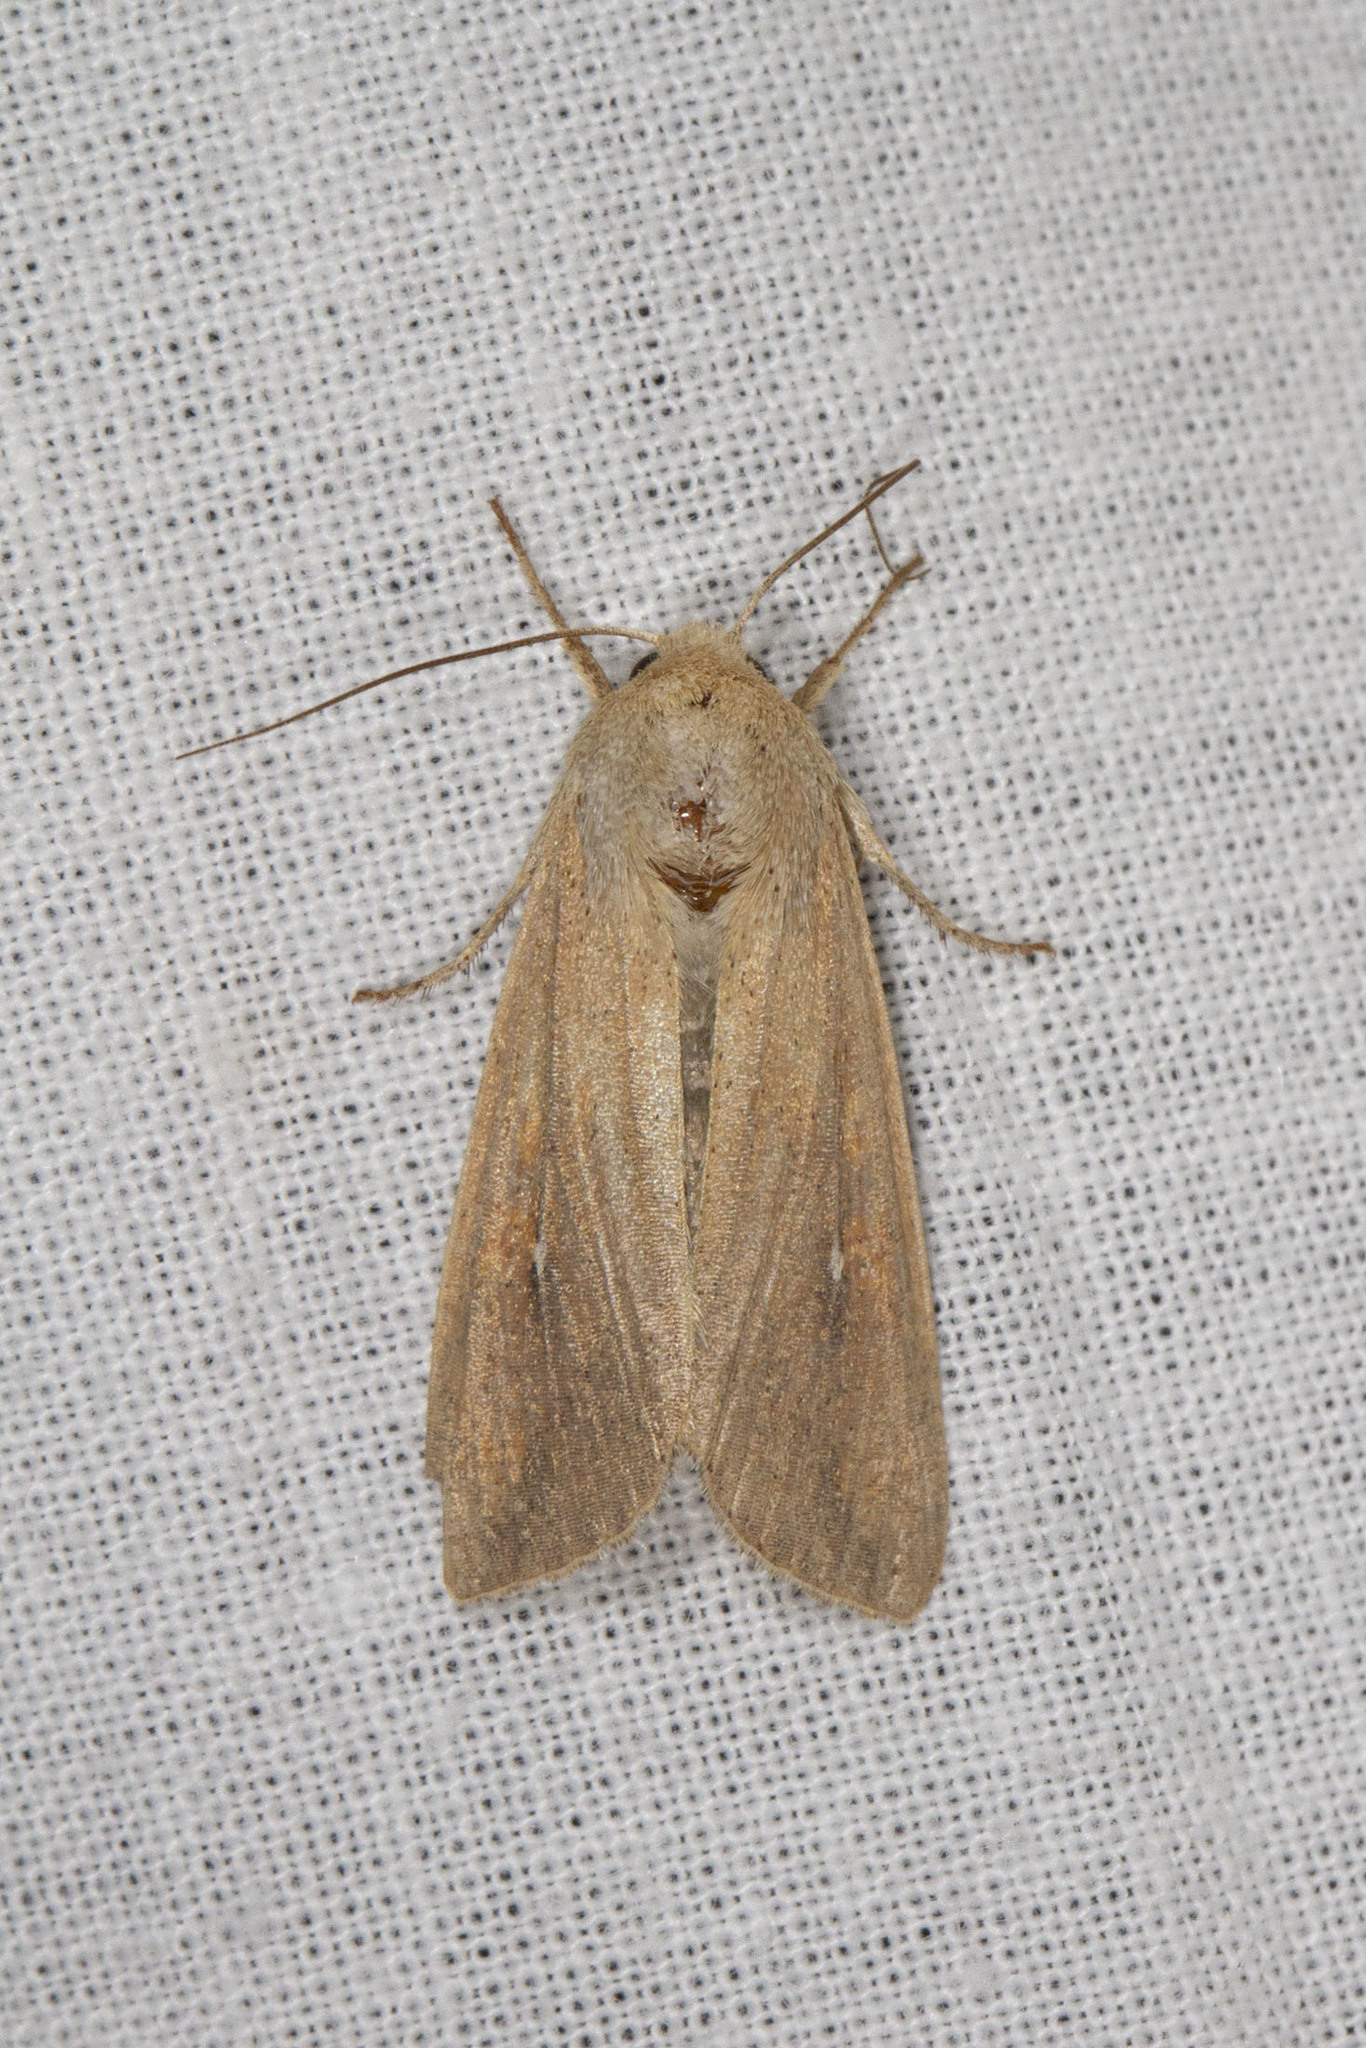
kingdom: Animalia
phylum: Arthropoda
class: Insecta
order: Lepidoptera
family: Noctuidae
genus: Mythimna
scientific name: Mythimna unipuncta
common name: White-speck
